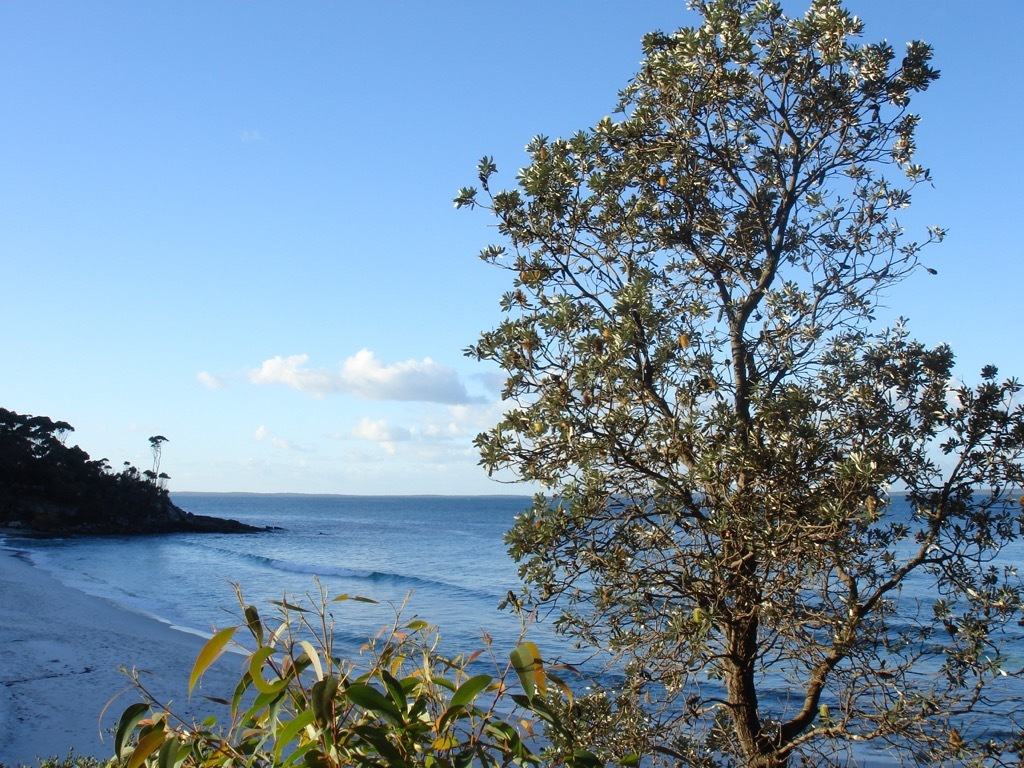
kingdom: Plantae
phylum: Tracheophyta
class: Magnoliopsida
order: Proteales
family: Proteaceae
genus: Banksia
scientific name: Banksia integrifolia
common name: White-honeysuckle
